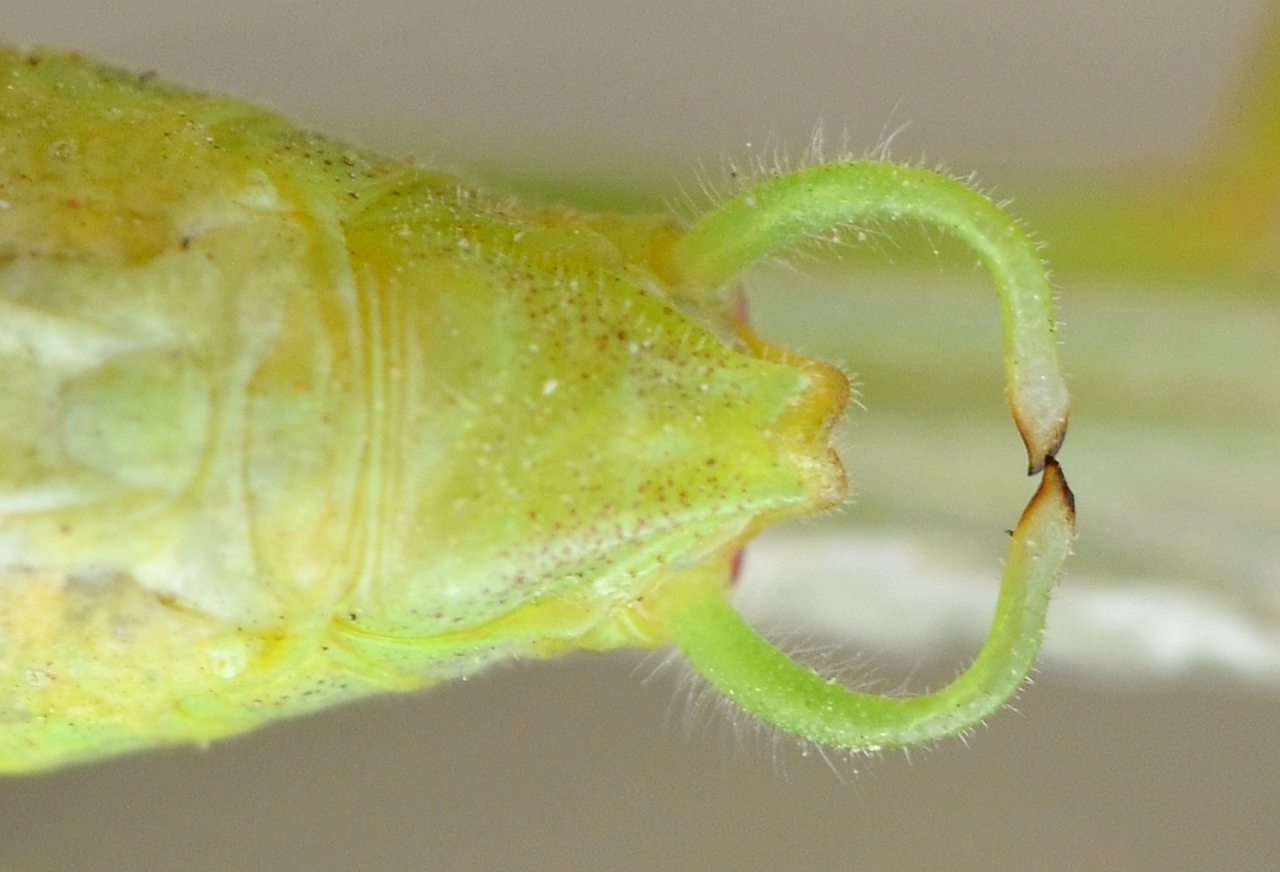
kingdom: Animalia
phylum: Arthropoda
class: Insecta
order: Orthoptera
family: Tettigoniidae
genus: Phaneroptera
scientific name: Phaneroptera laticerca
